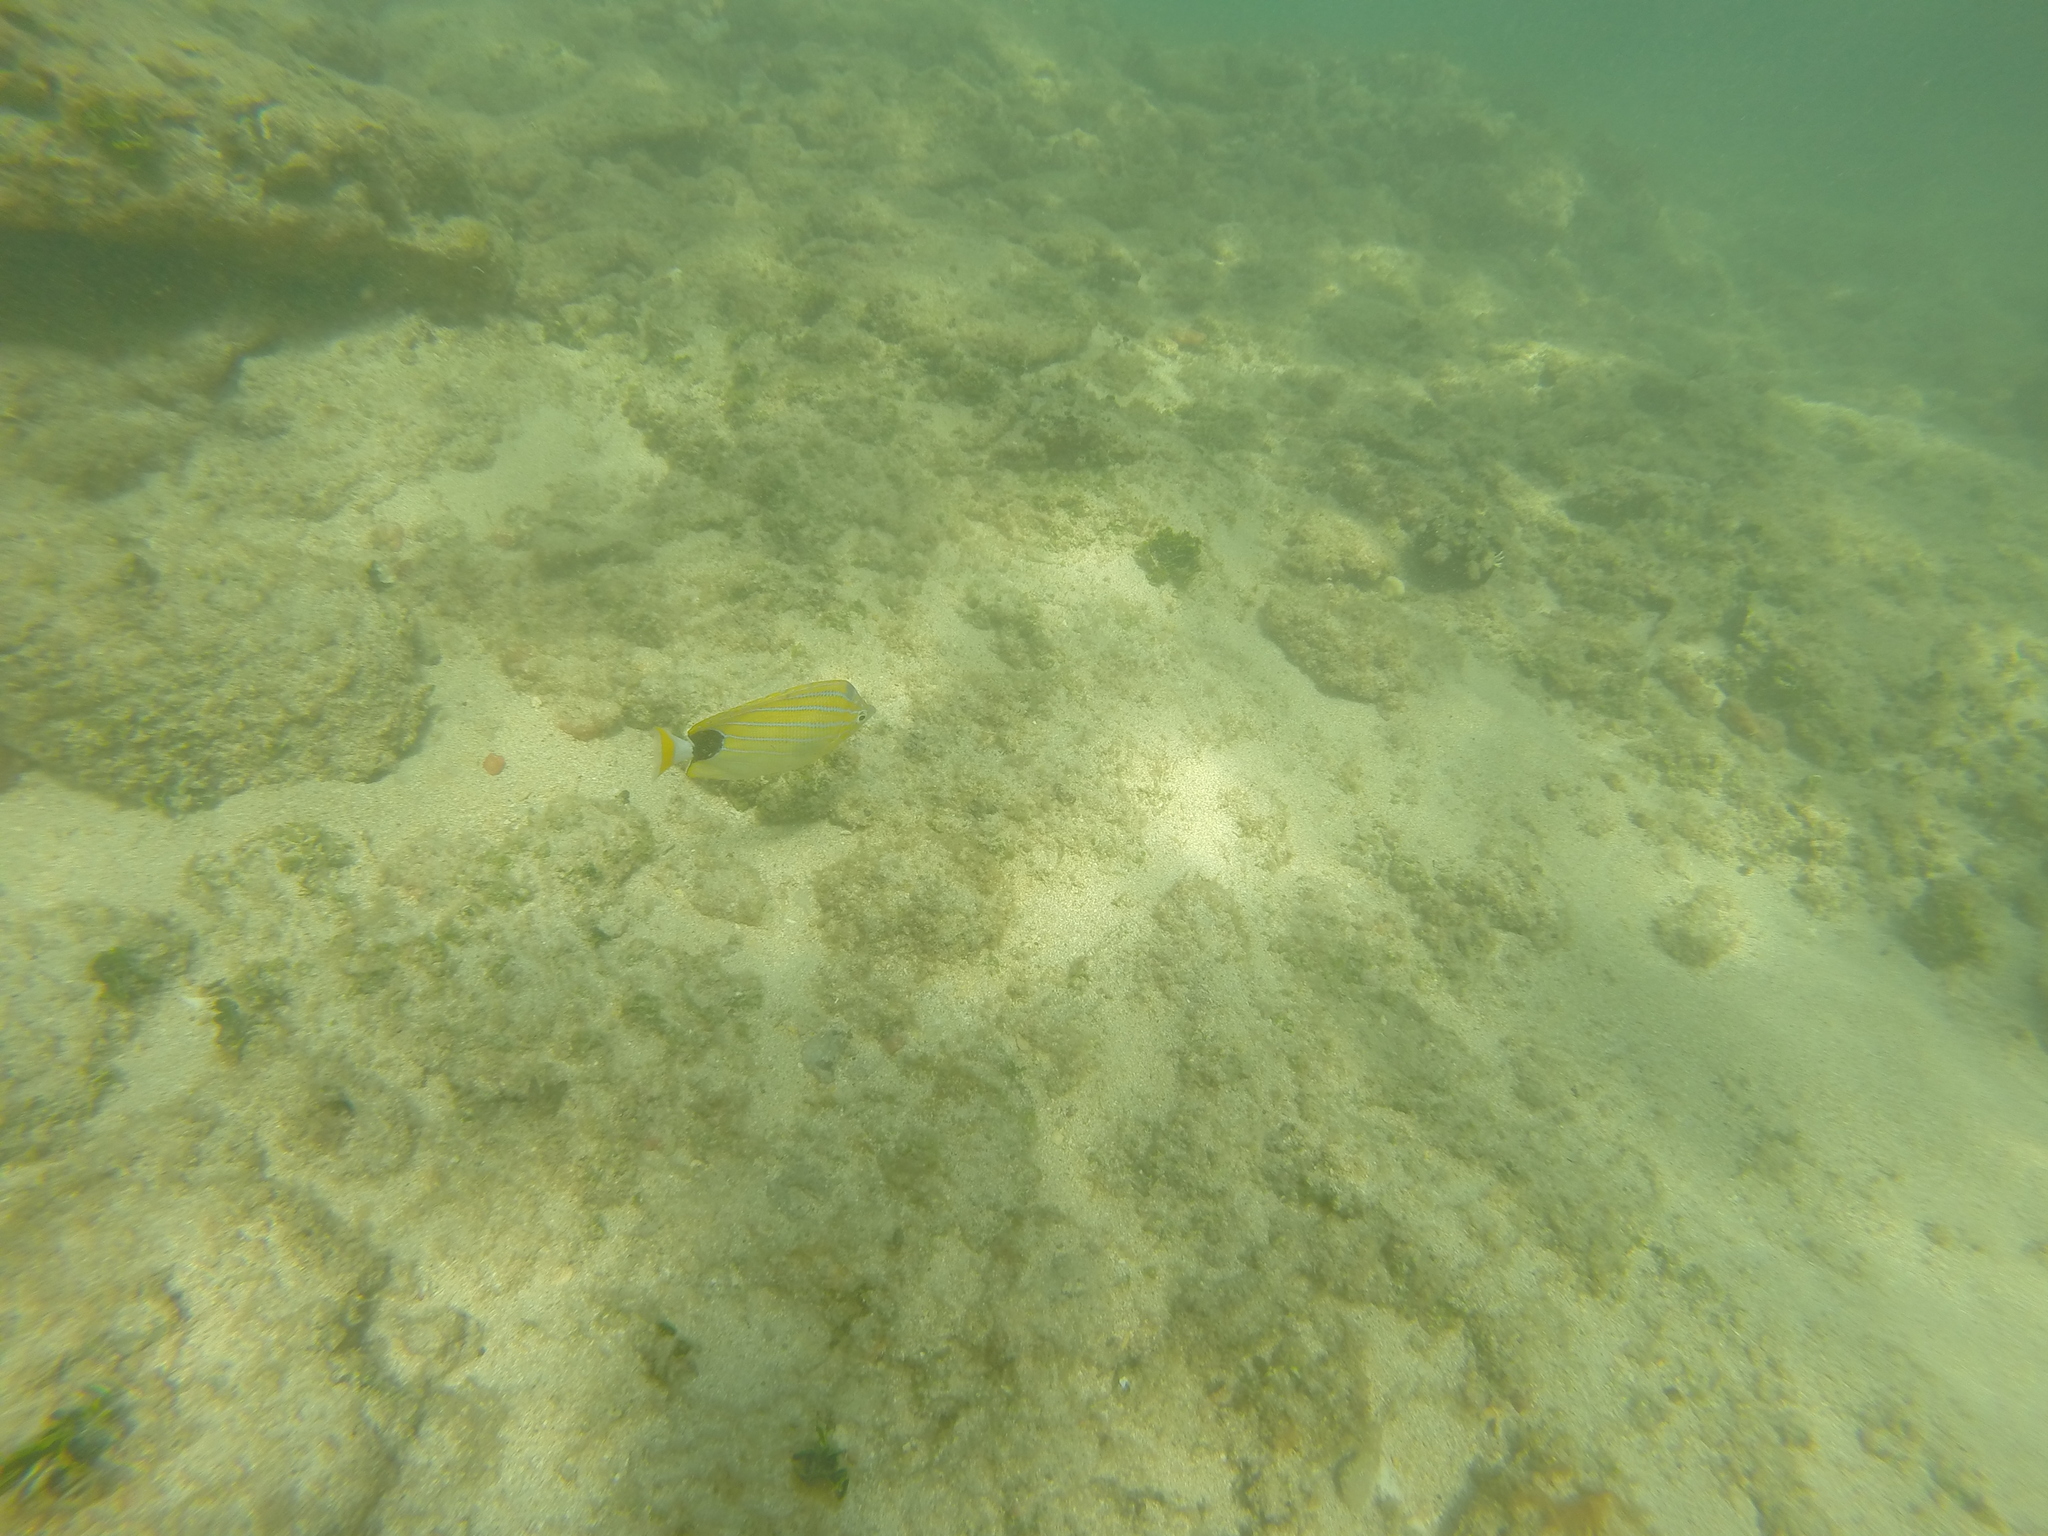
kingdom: Animalia
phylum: Chordata
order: Perciformes
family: Chaetodontidae
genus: Chaetodon
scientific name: Chaetodon fremblii
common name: Bluestriped butterflyfish
